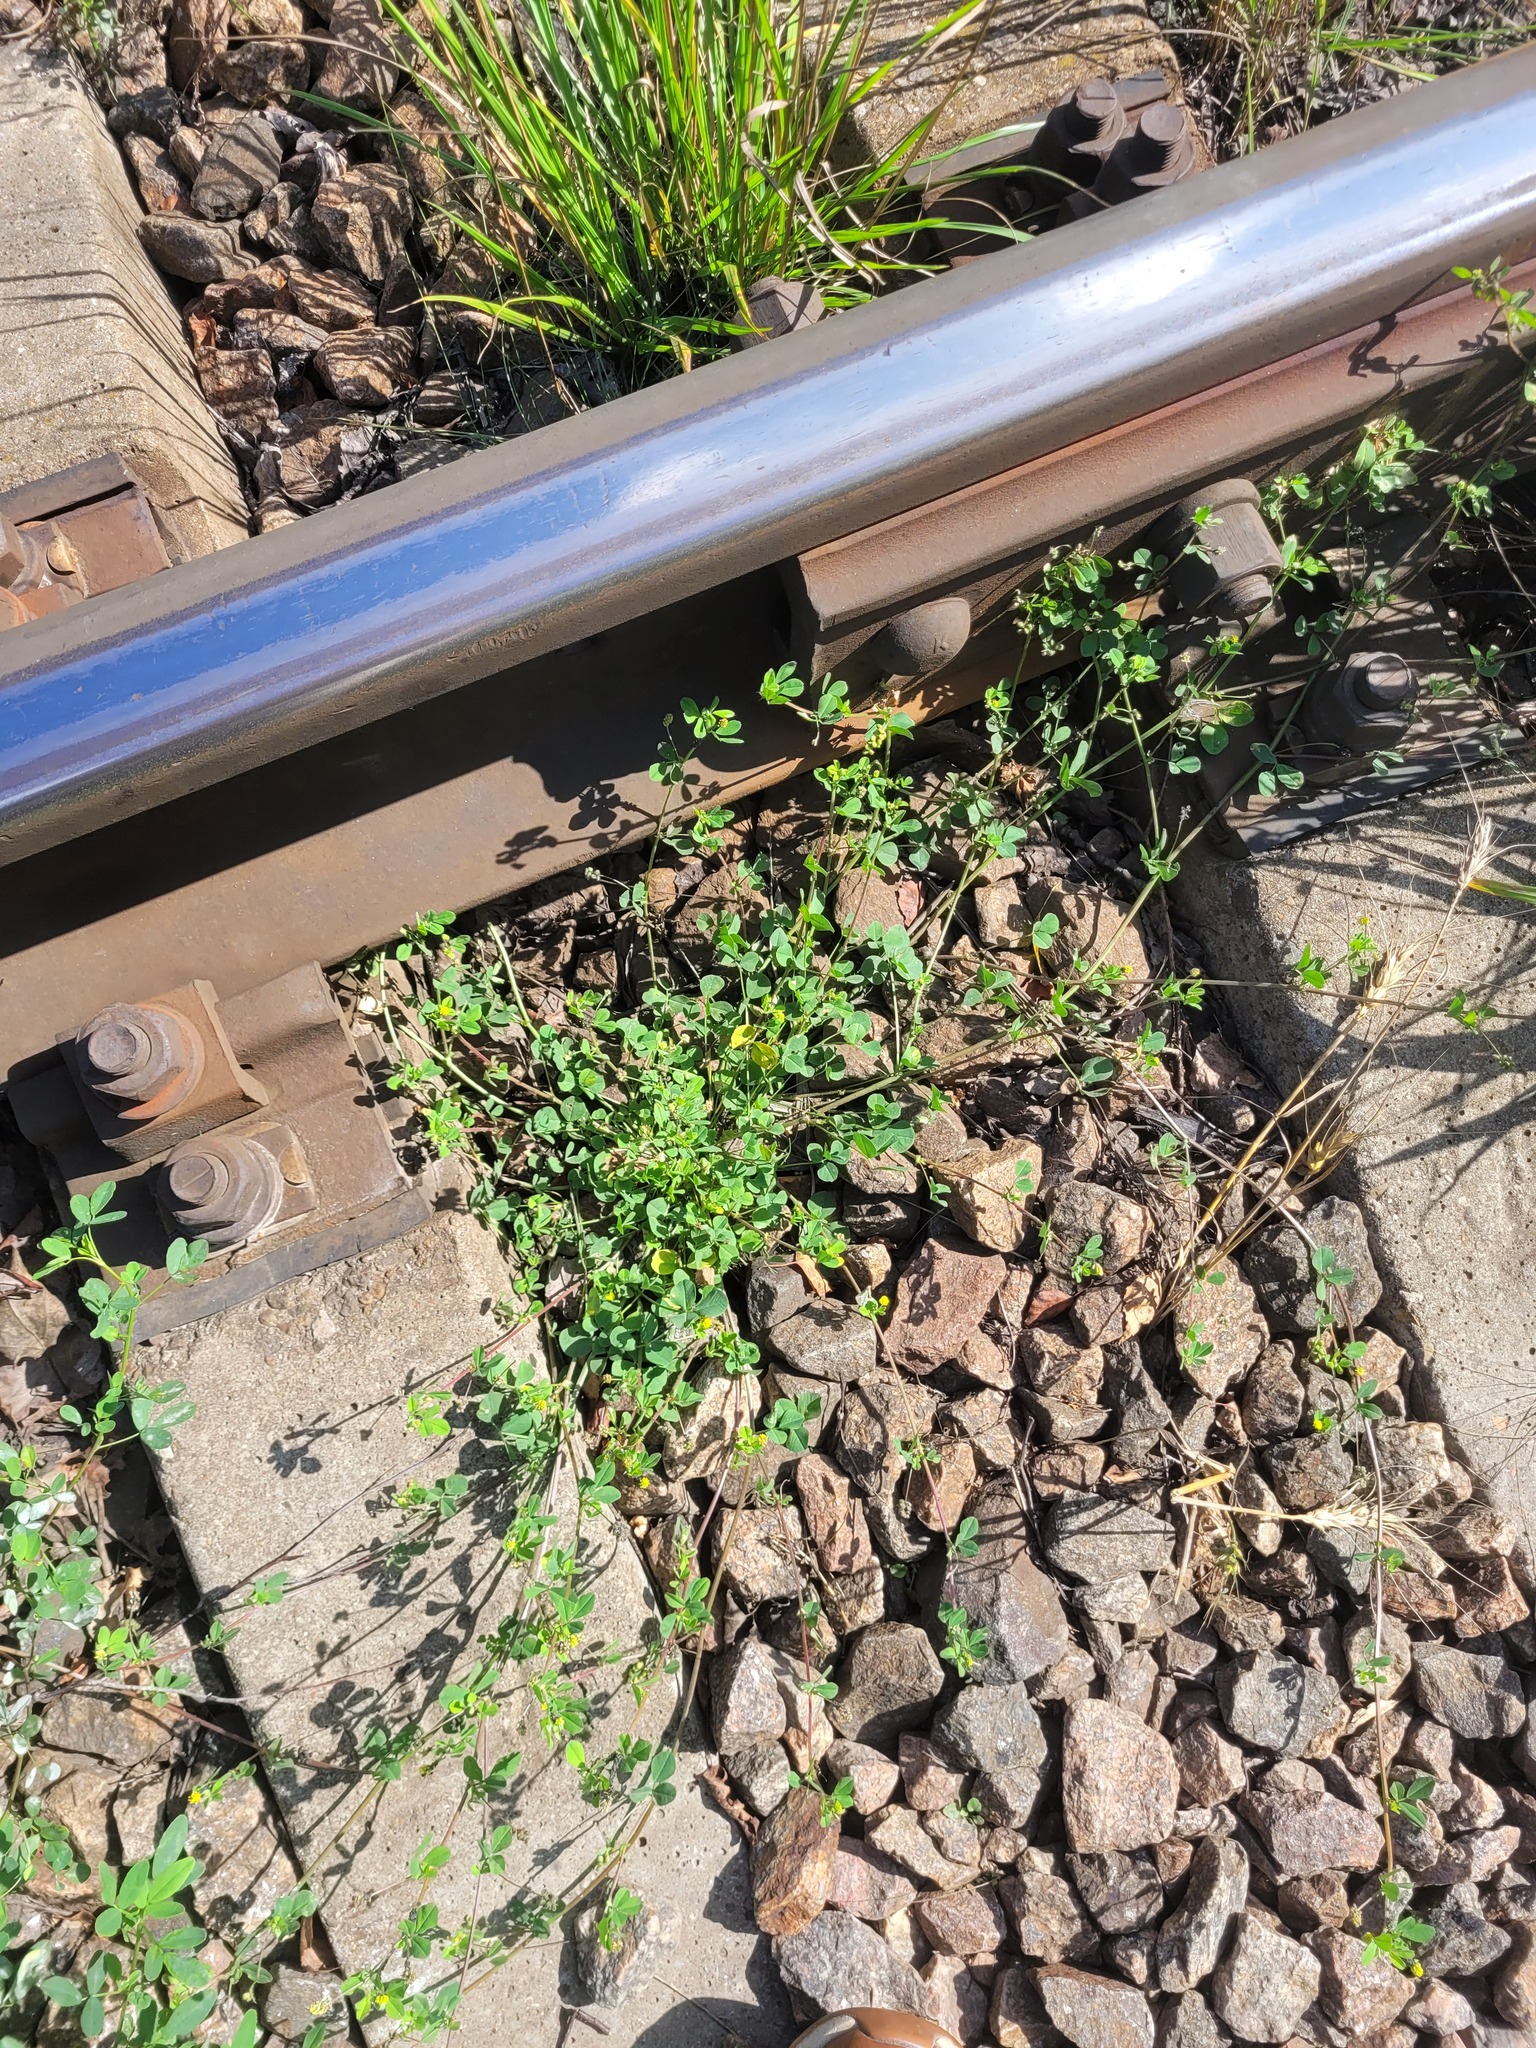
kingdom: Plantae
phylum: Tracheophyta
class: Magnoliopsida
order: Fabales
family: Fabaceae
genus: Medicago
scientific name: Medicago lupulina
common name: Black medick
